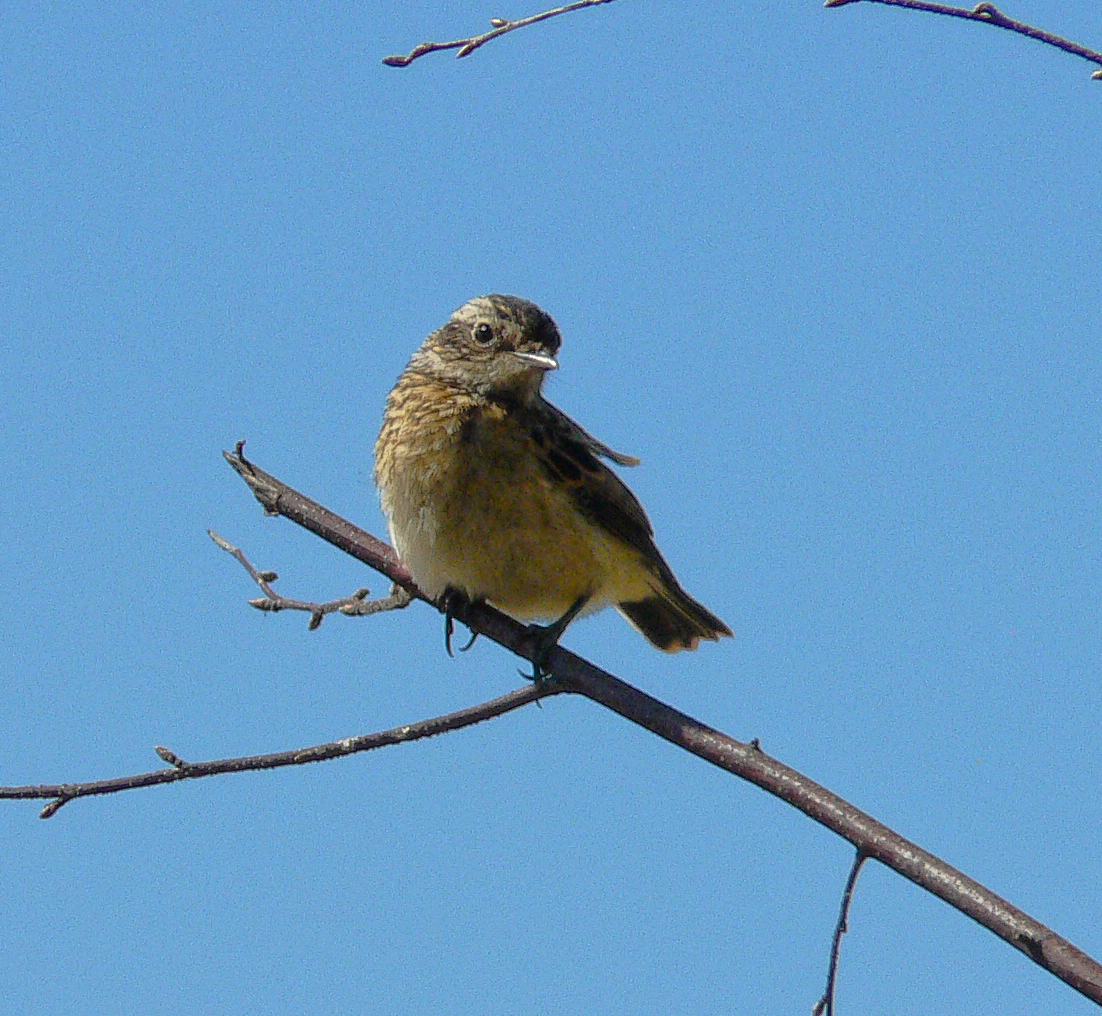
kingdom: Animalia
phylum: Chordata
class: Aves
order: Passeriformes
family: Muscicapidae
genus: Saxicola
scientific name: Saxicola rubetra
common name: Whinchat
